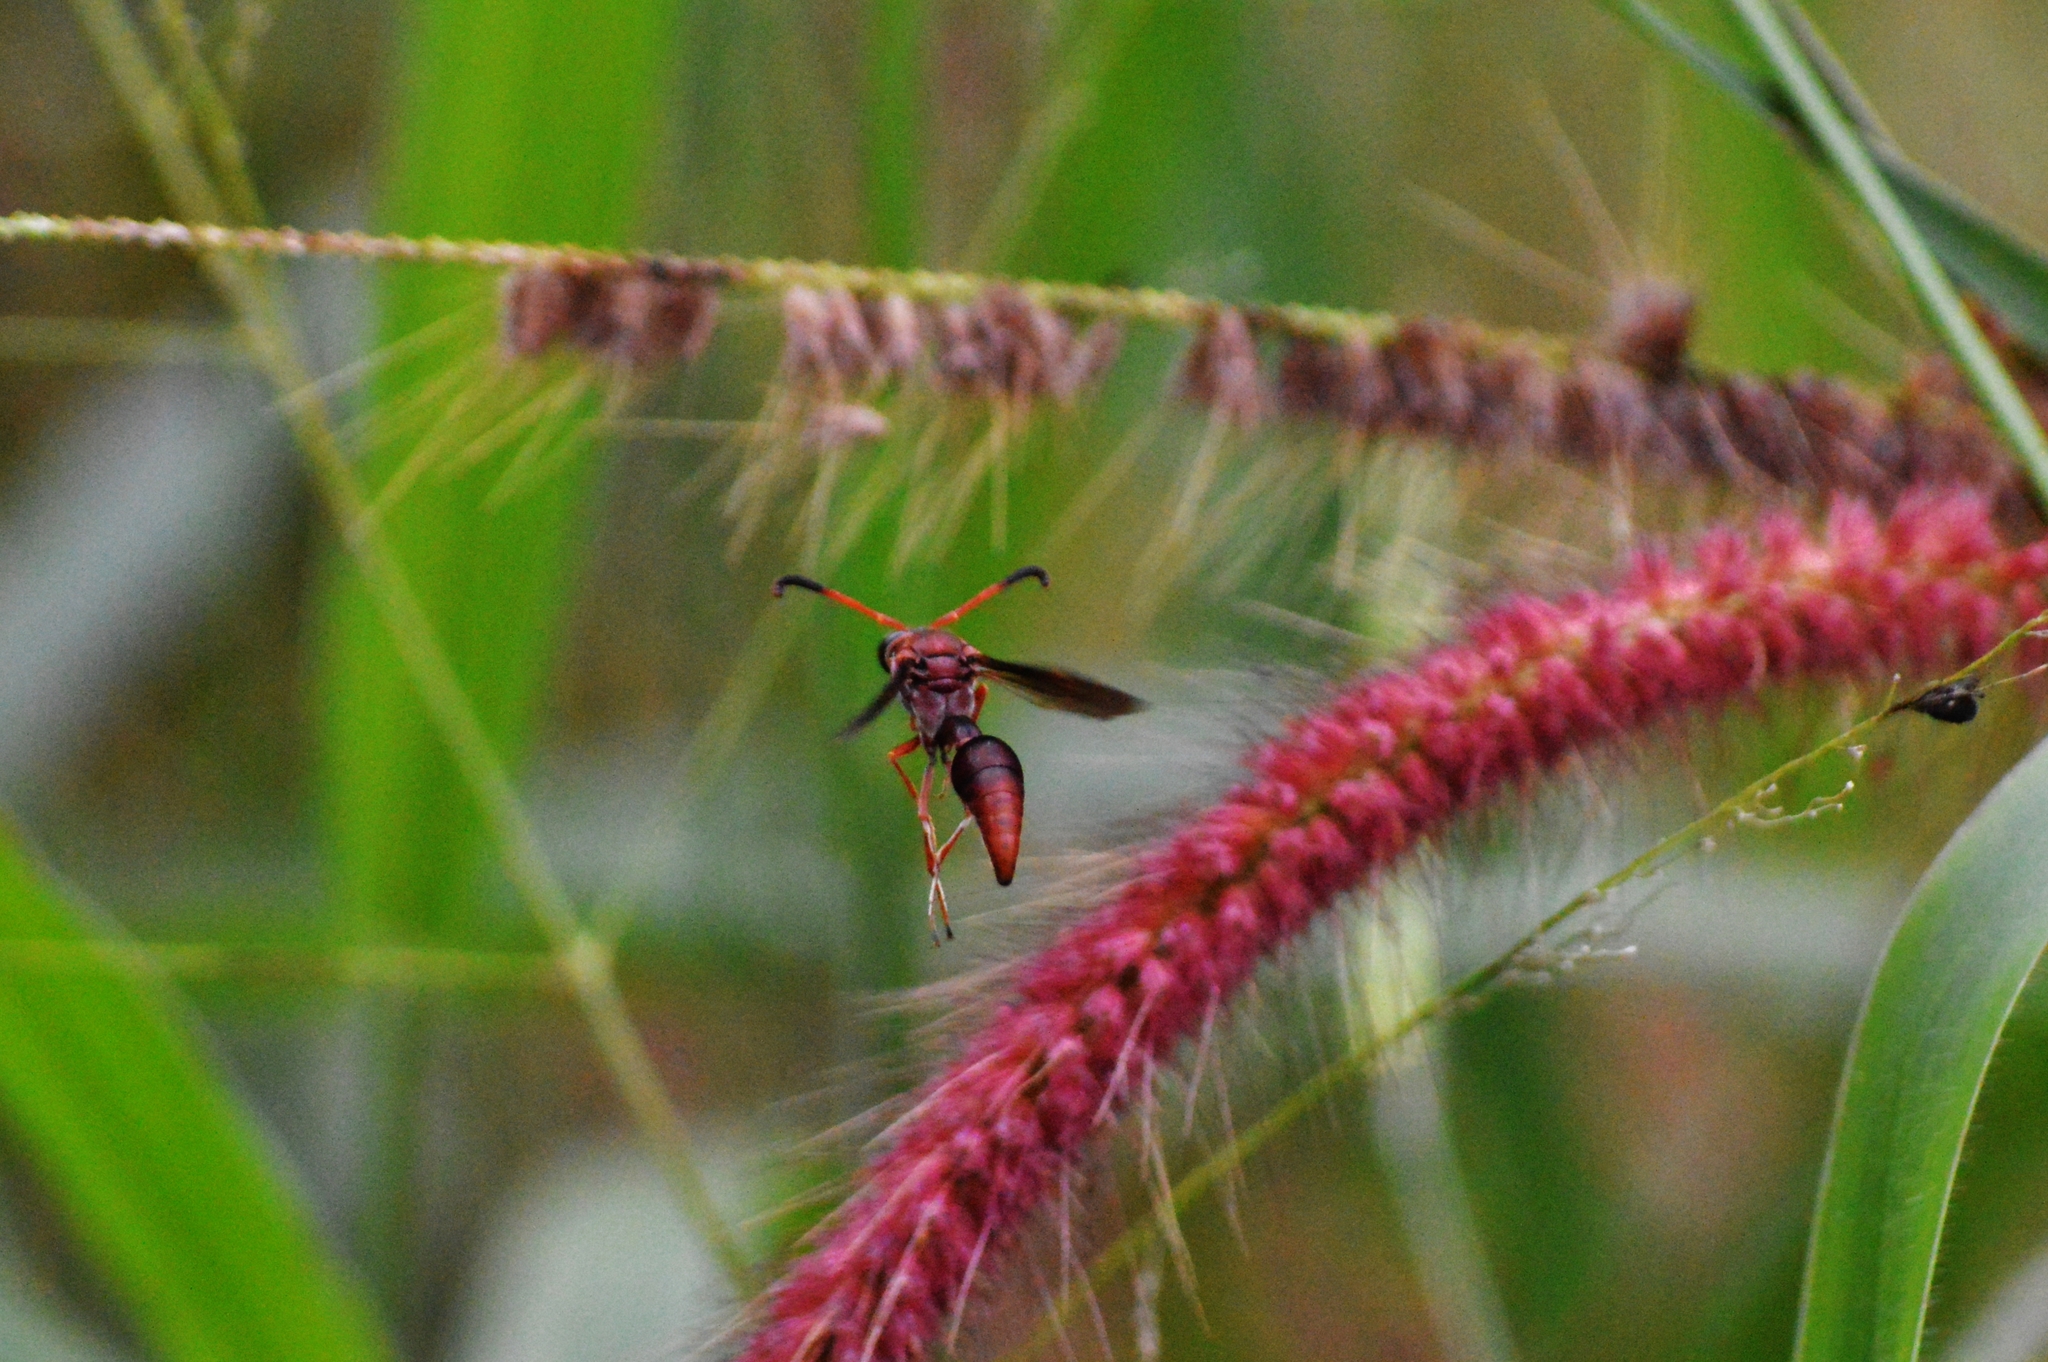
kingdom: Animalia
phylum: Arthropoda
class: Insecta
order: Hymenoptera
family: Eumenidae
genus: Zeta
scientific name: Zeta argillaceum
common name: Potter wasp
